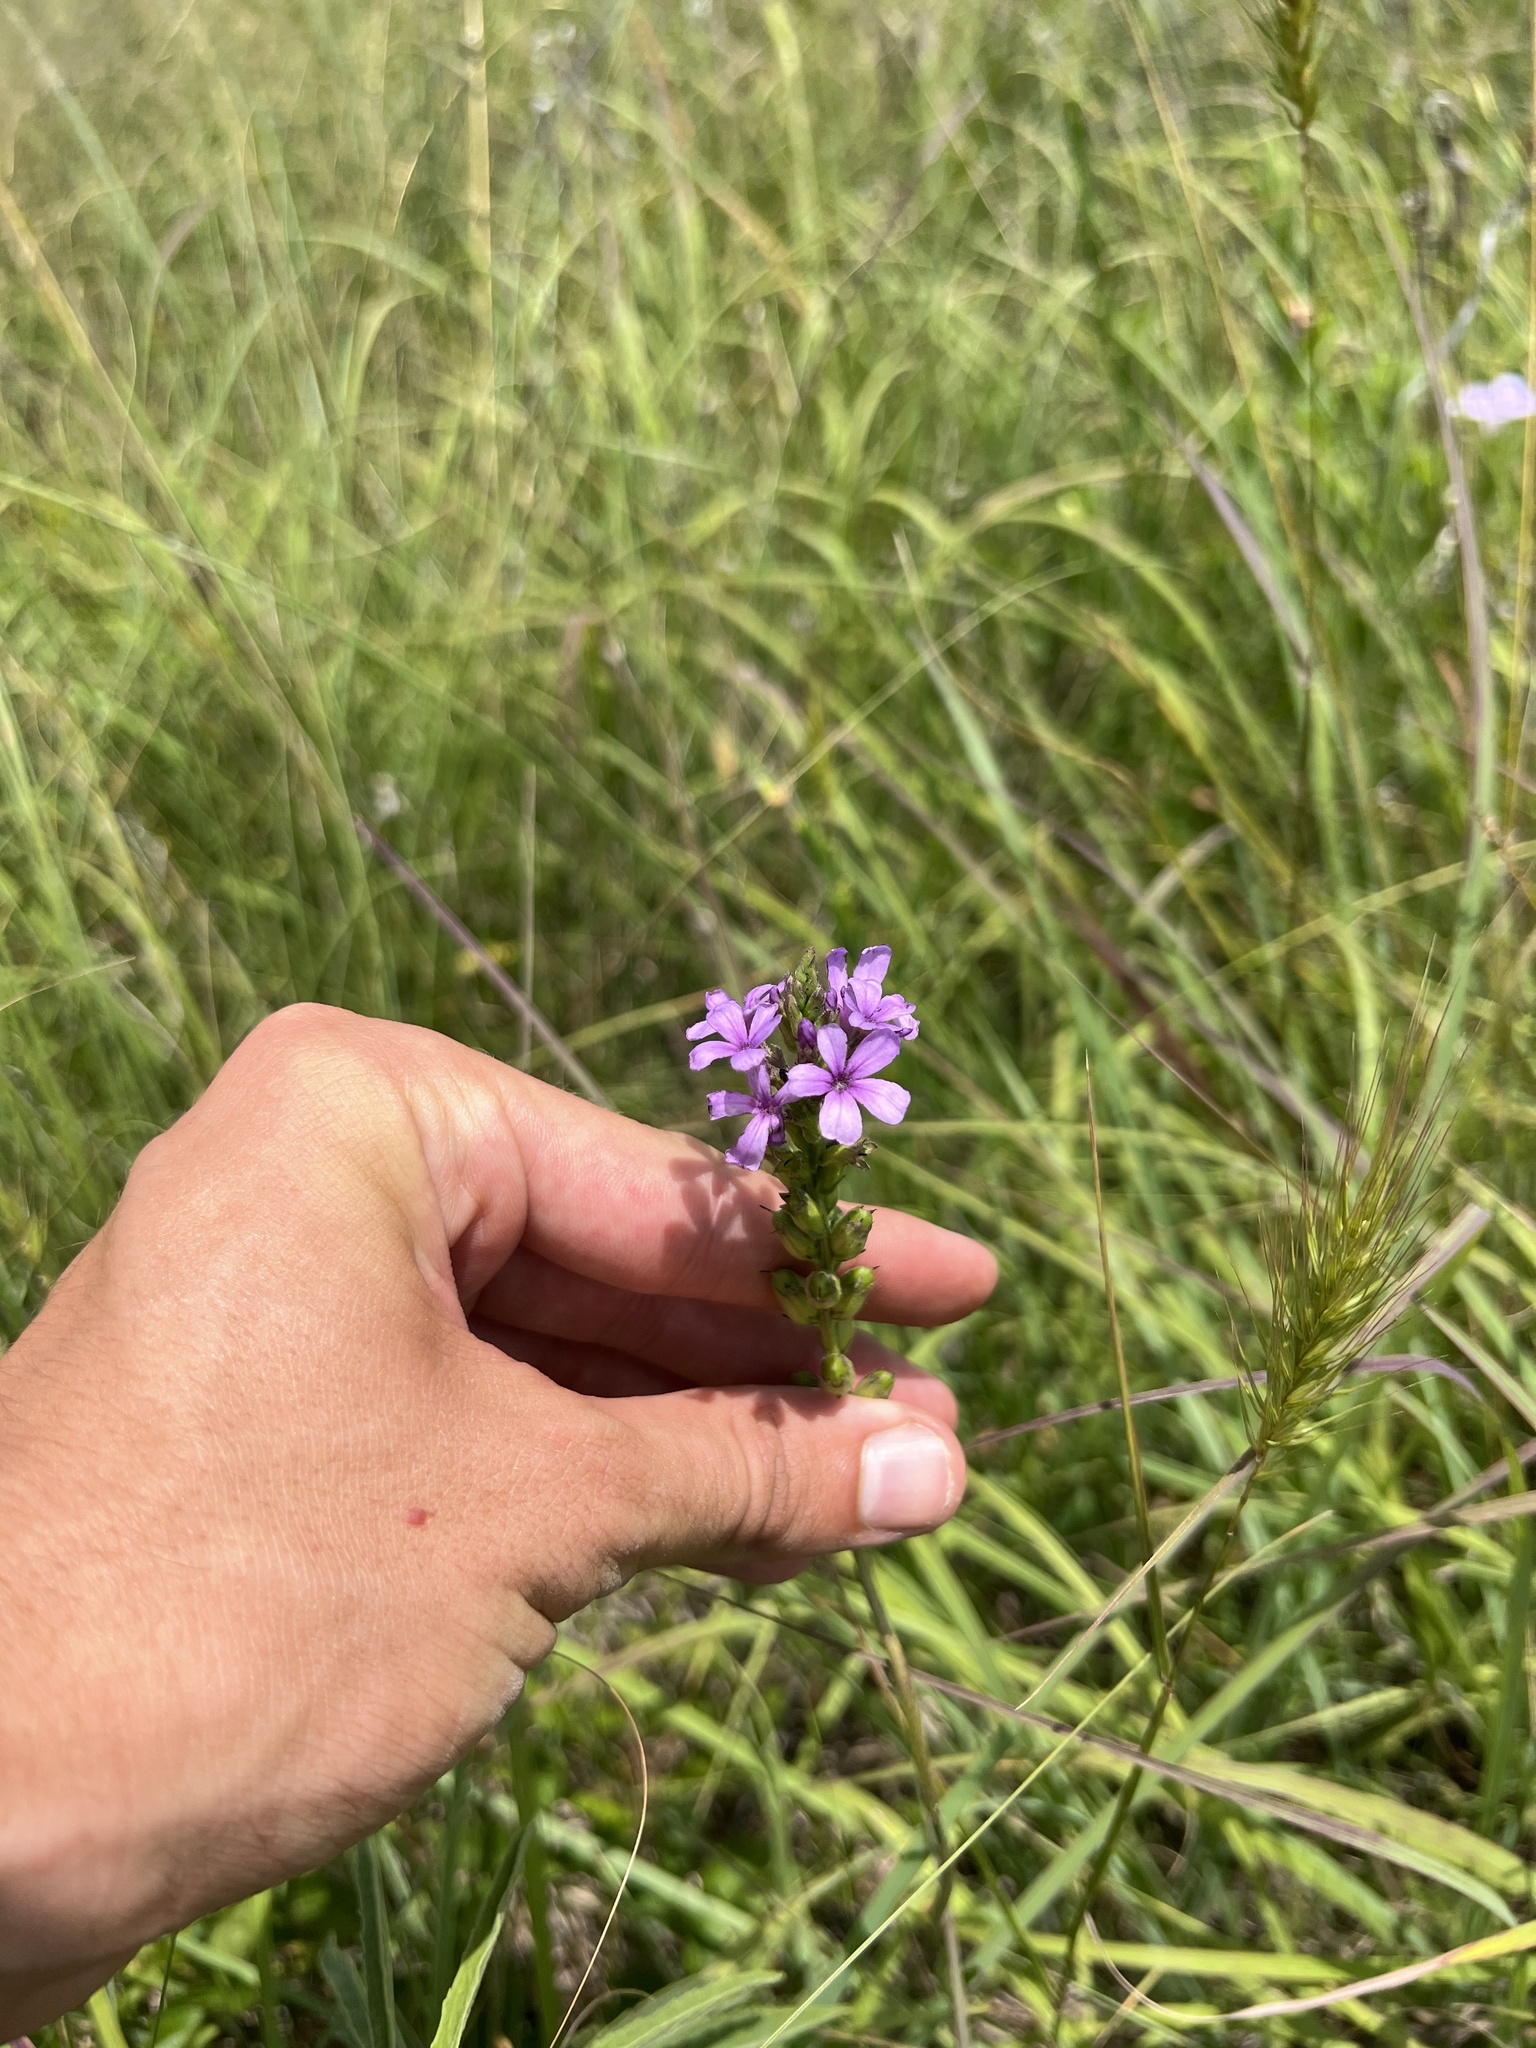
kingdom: Plantae
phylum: Tracheophyta
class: Magnoliopsida
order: Lamiales
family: Orobanchaceae
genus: Buchnera
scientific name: Buchnera americana
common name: American bluehearts
